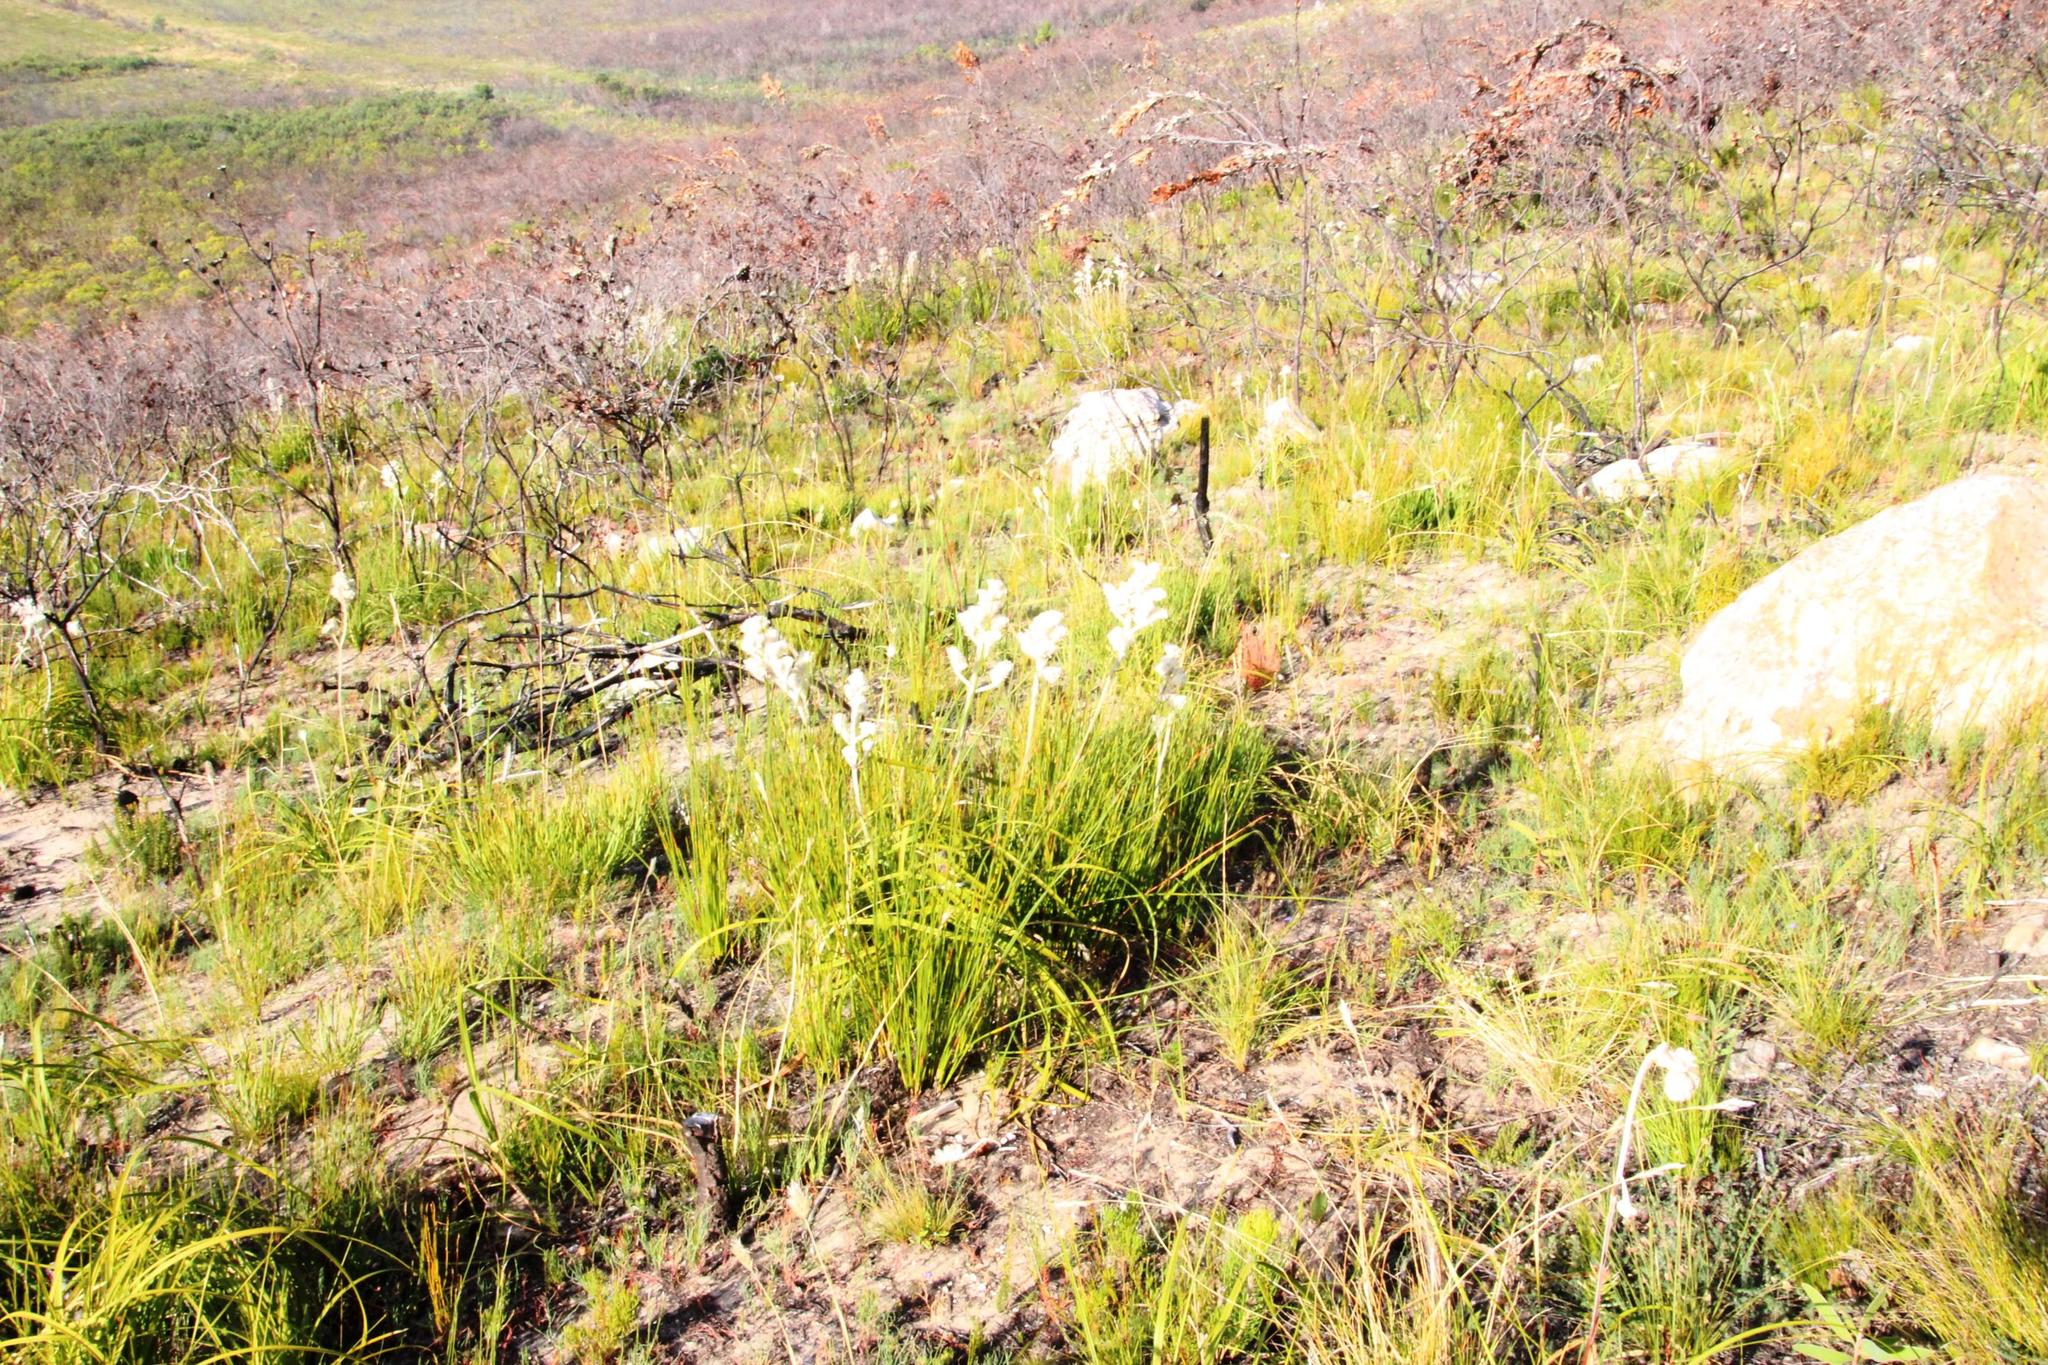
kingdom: Plantae
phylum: Tracheophyta
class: Liliopsida
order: Asparagales
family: Lanariaceae
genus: Lanaria
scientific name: Lanaria lanata
